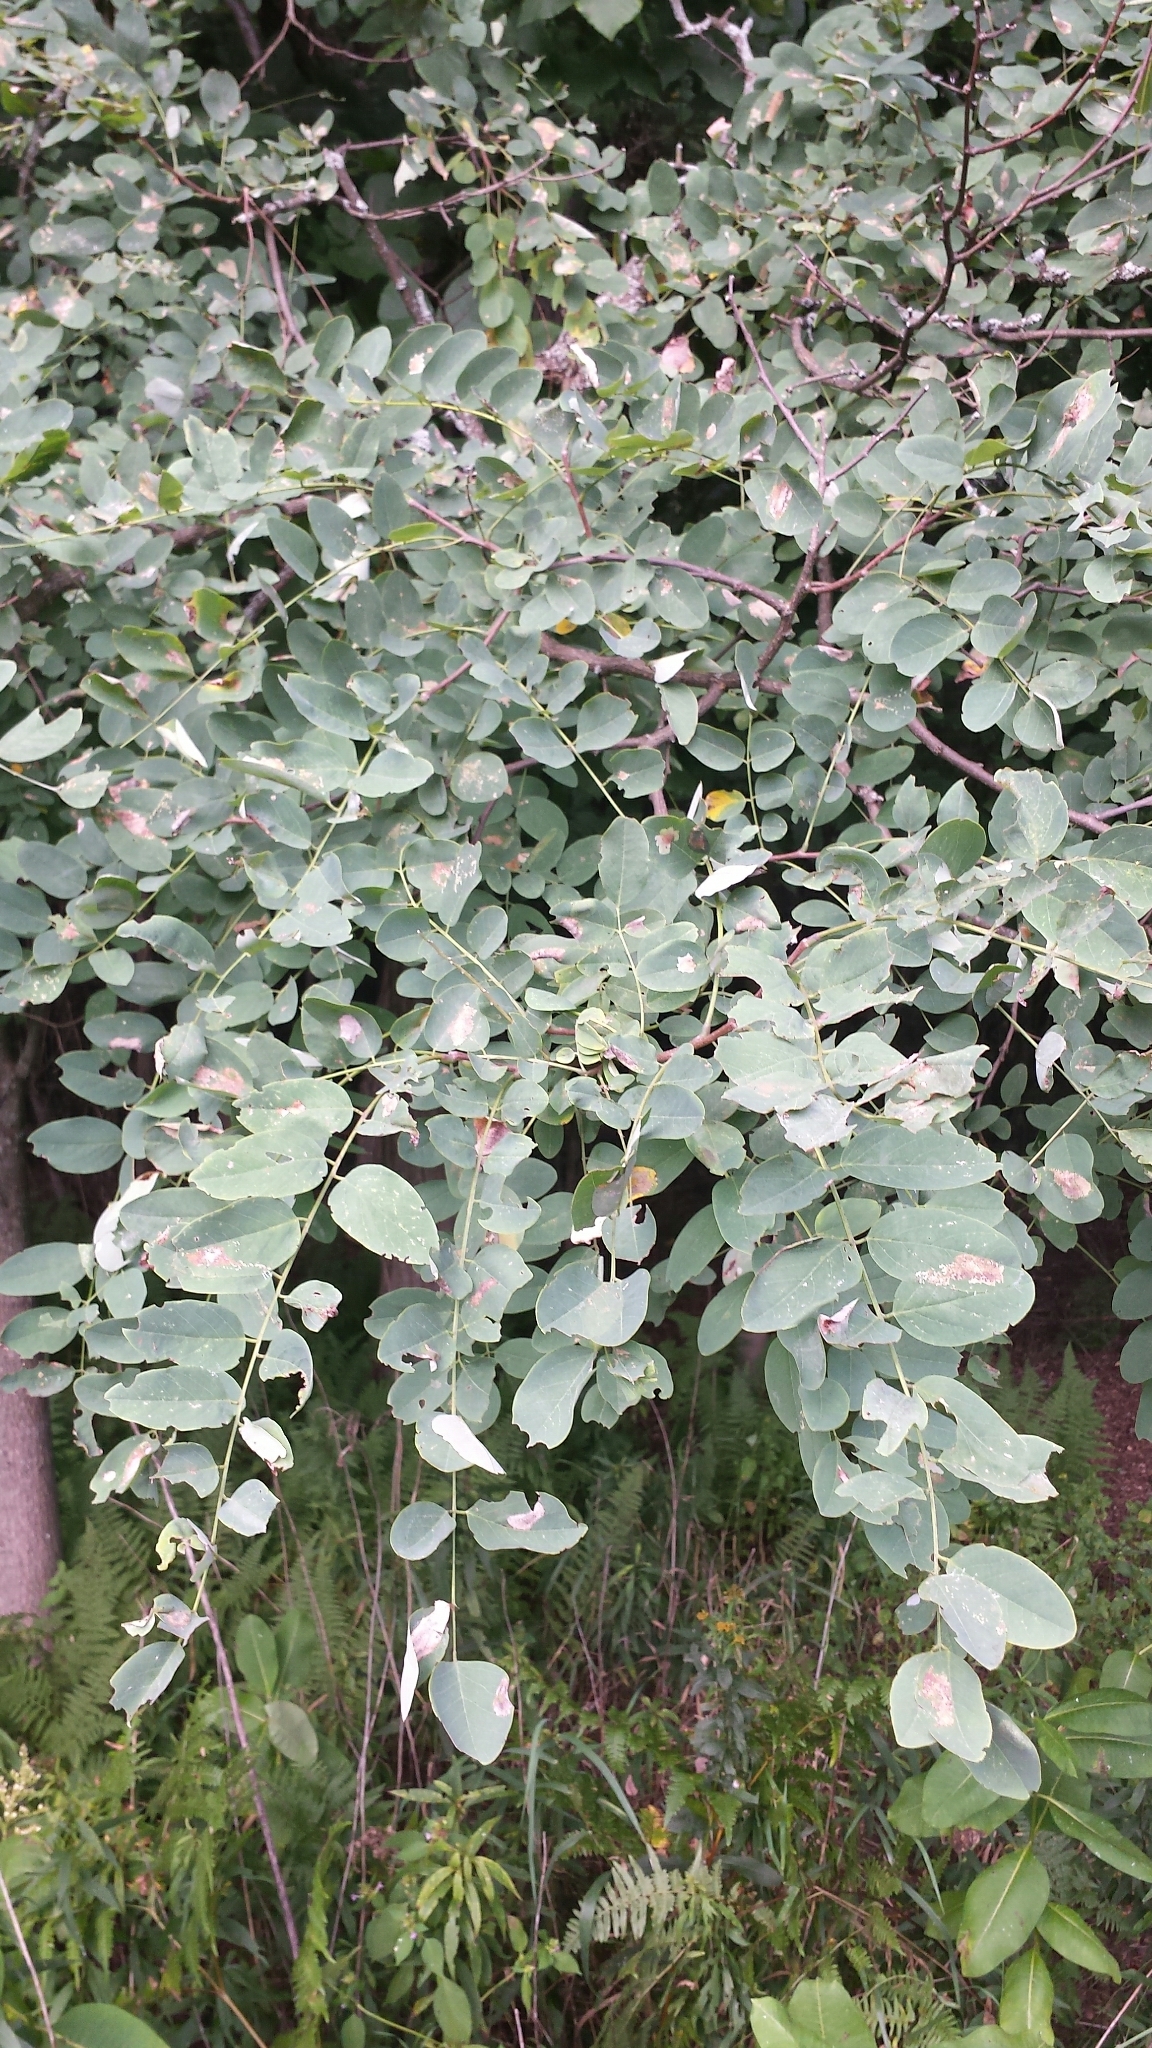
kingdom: Plantae
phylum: Tracheophyta
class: Magnoliopsida
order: Fabales
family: Fabaceae
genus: Robinia
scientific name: Robinia pseudoacacia
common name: Black locust
